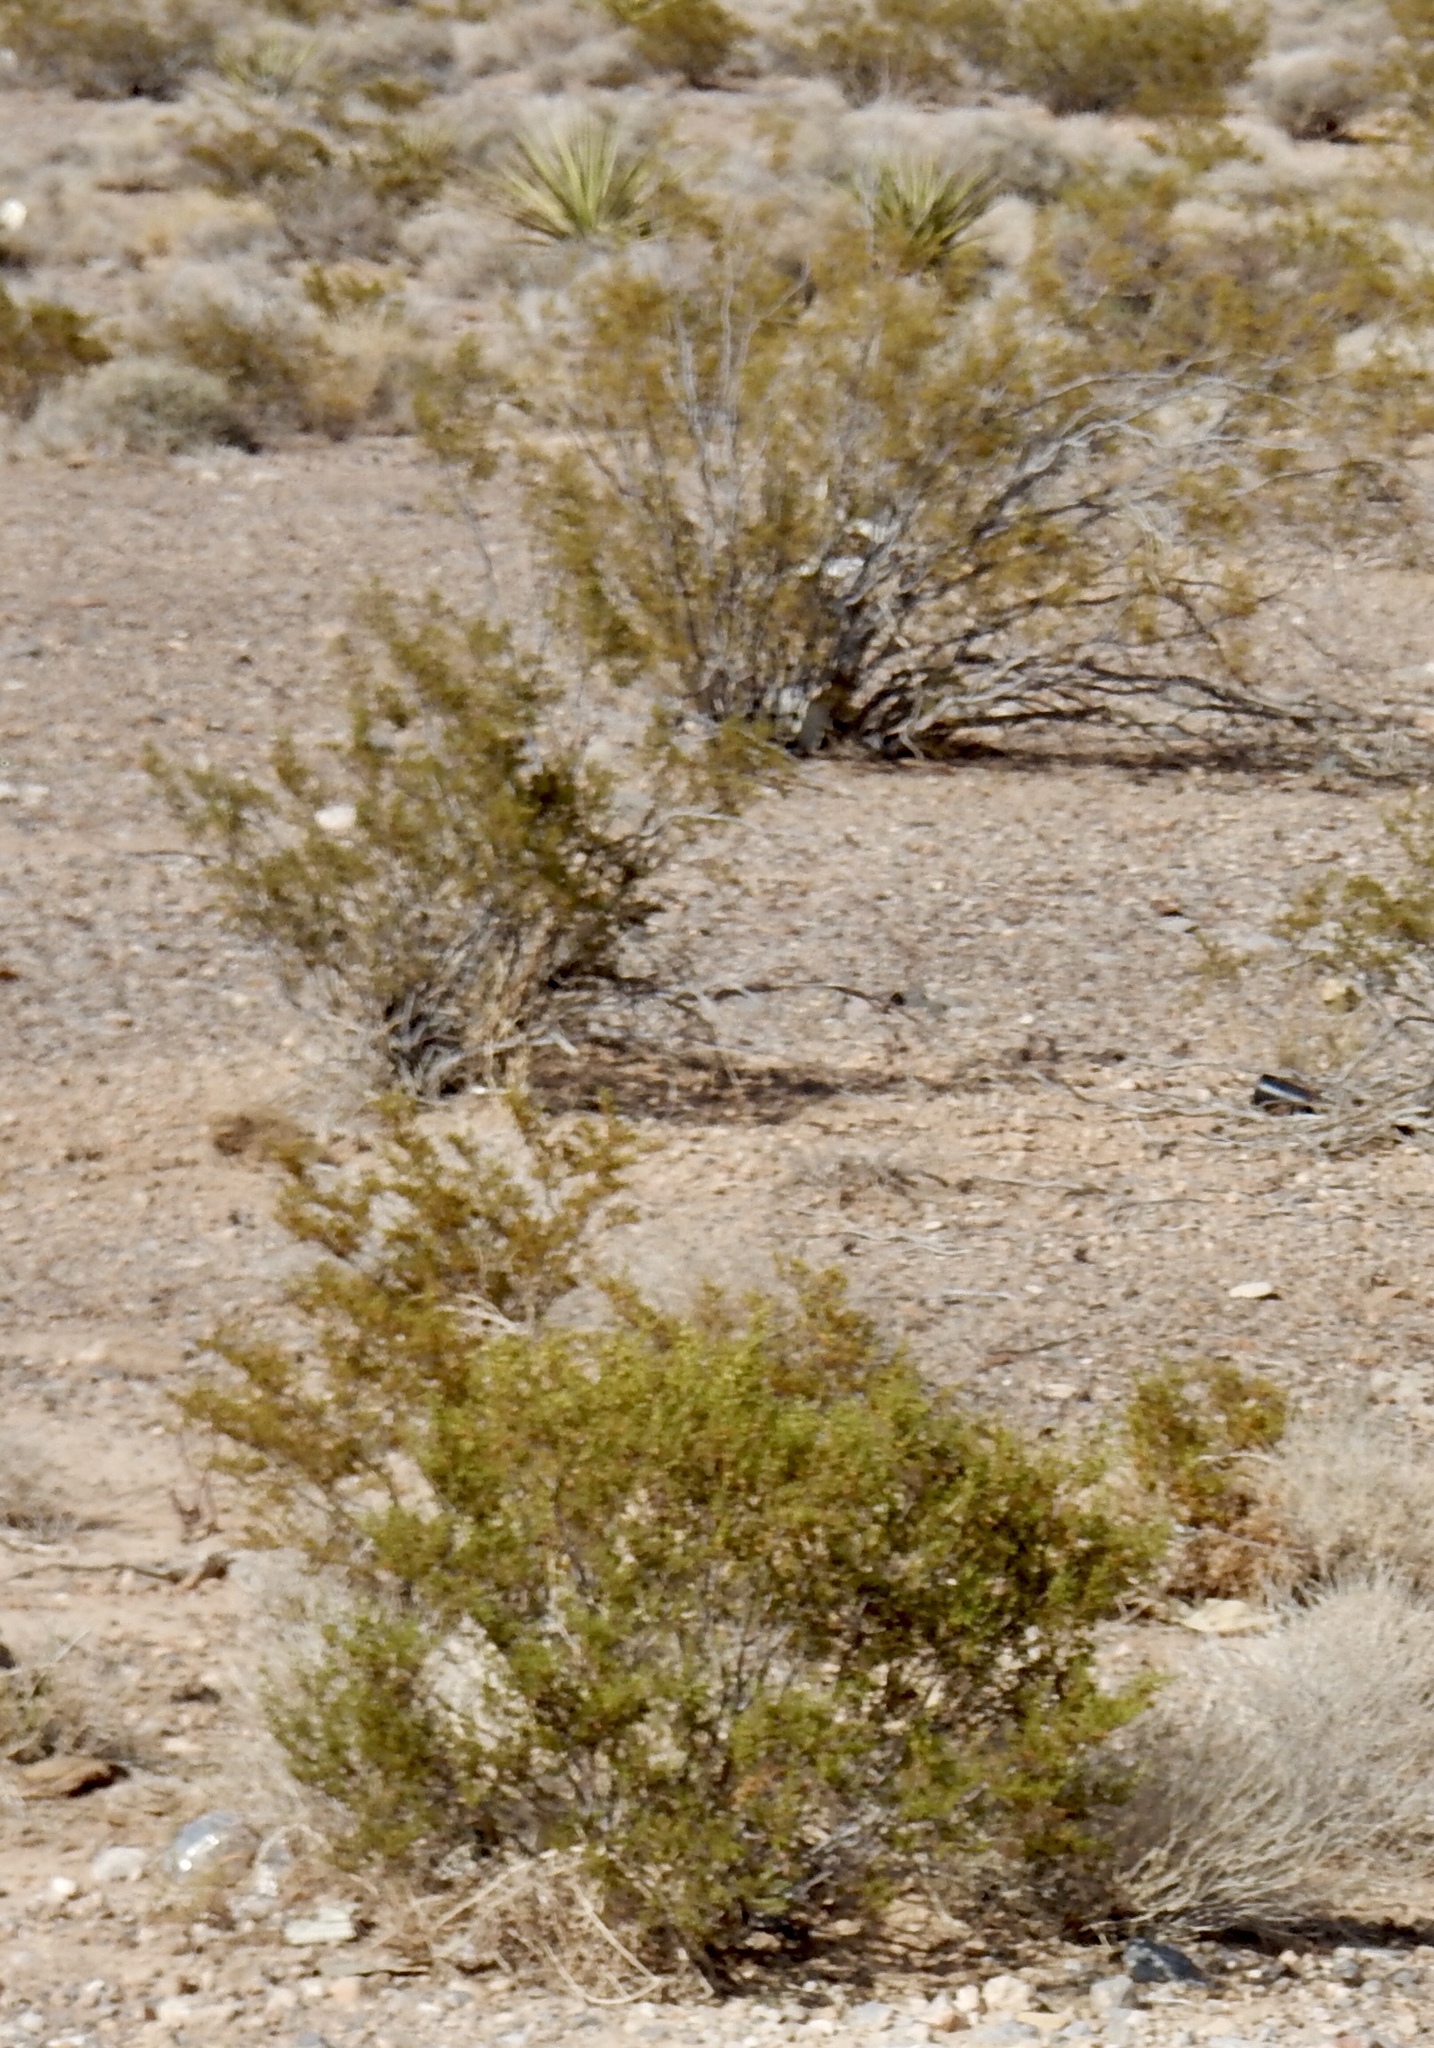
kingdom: Plantae
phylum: Tracheophyta
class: Magnoliopsida
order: Zygophyllales
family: Zygophyllaceae
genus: Larrea
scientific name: Larrea tridentata
